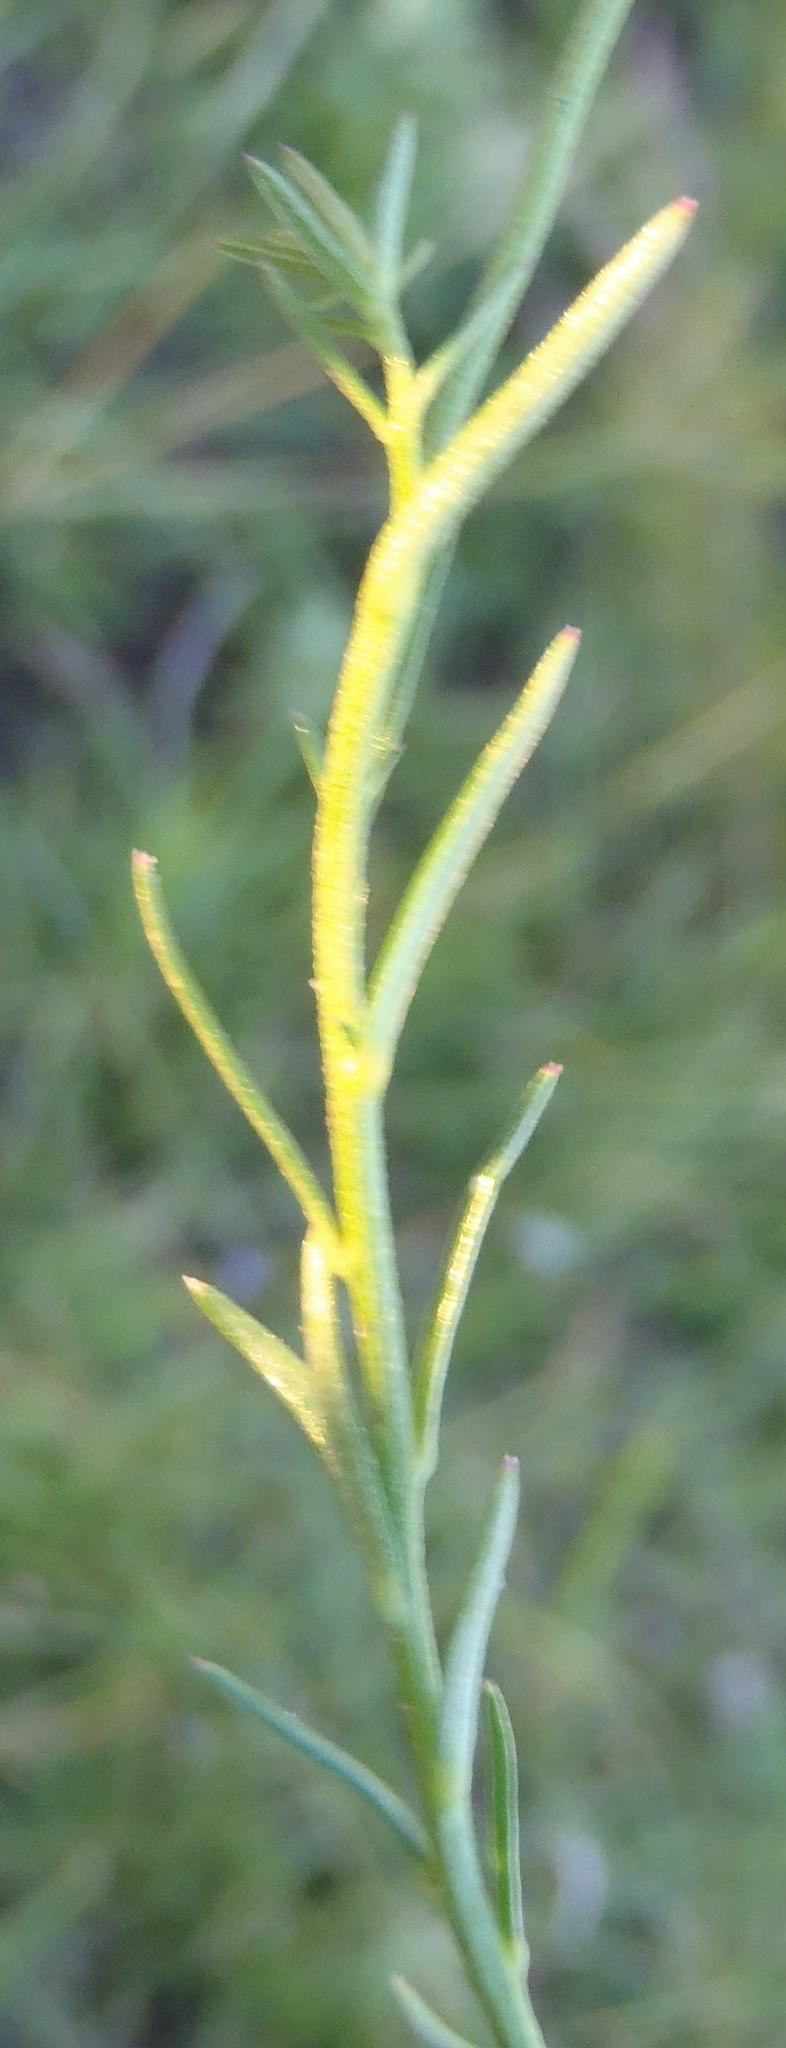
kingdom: Plantae
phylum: Tracheophyta
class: Magnoliopsida
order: Asterales
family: Campanulaceae
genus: Monopsis
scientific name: Monopsis decipiens
